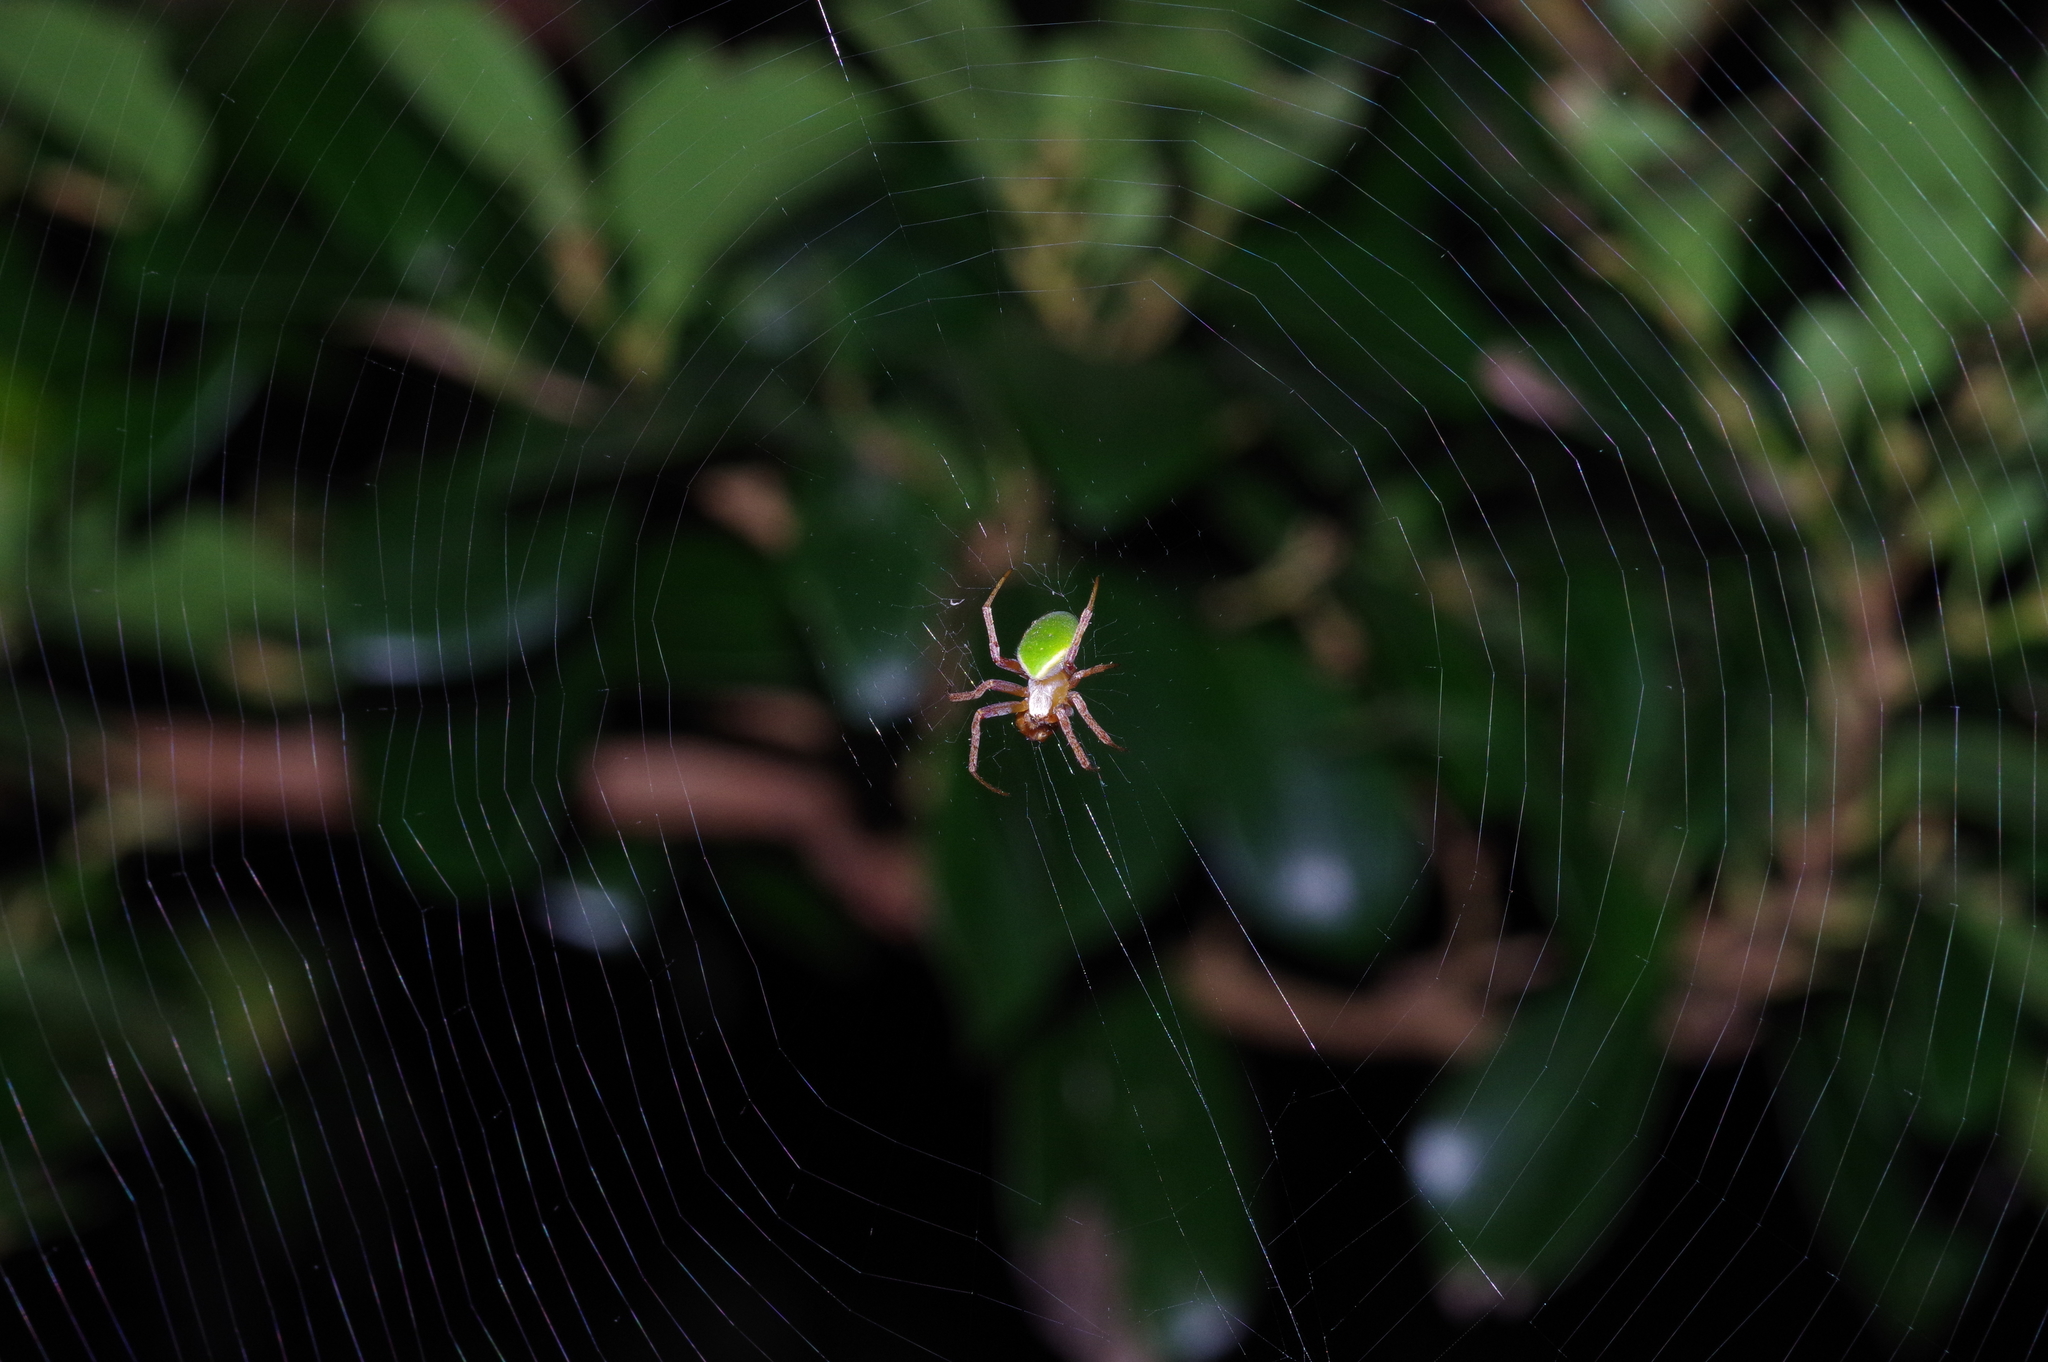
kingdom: Animalia
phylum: Arthropoda
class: Arachnida
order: Araneae
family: Araneidae
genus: Neoscona
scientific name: Neoscona mellotteei
